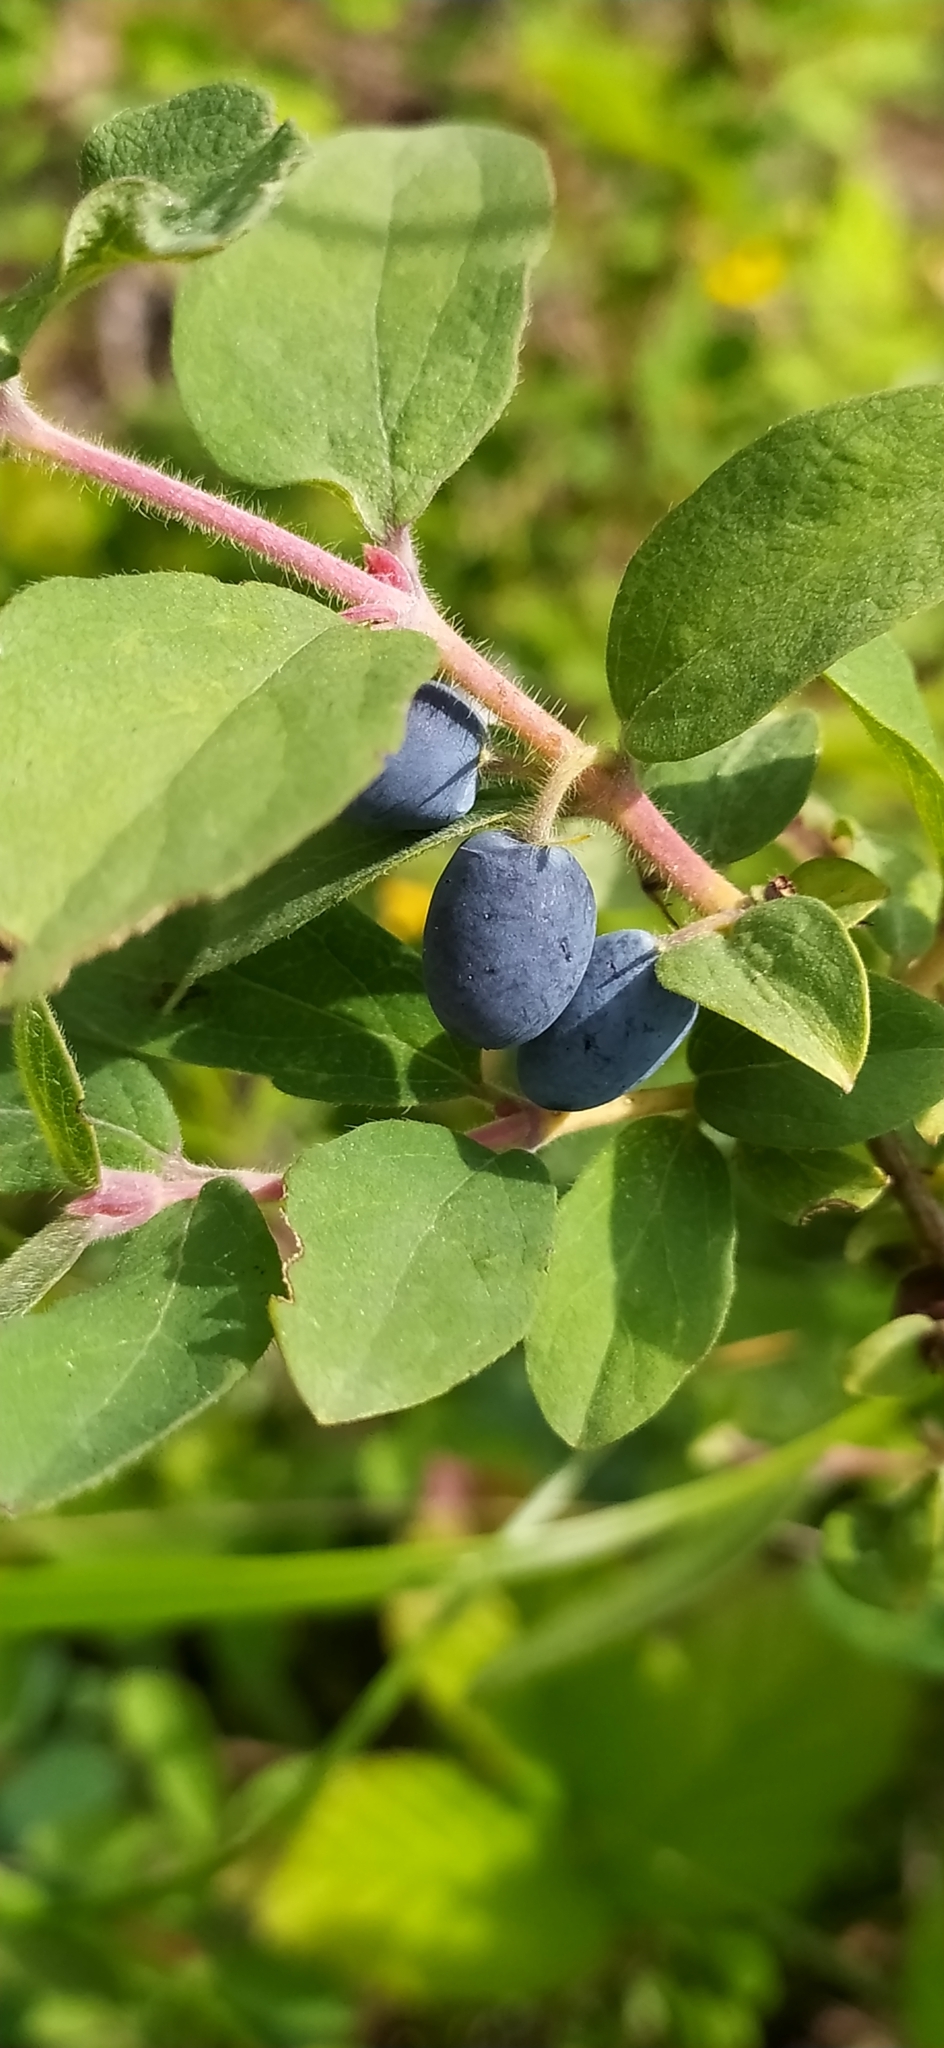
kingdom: Plantae
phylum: Tracheophyta
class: Magnoliopsida
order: Dipsacales
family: Caprifoliaceae
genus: Lonicera
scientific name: Lonicera caerulea
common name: Blue honeysuckle
